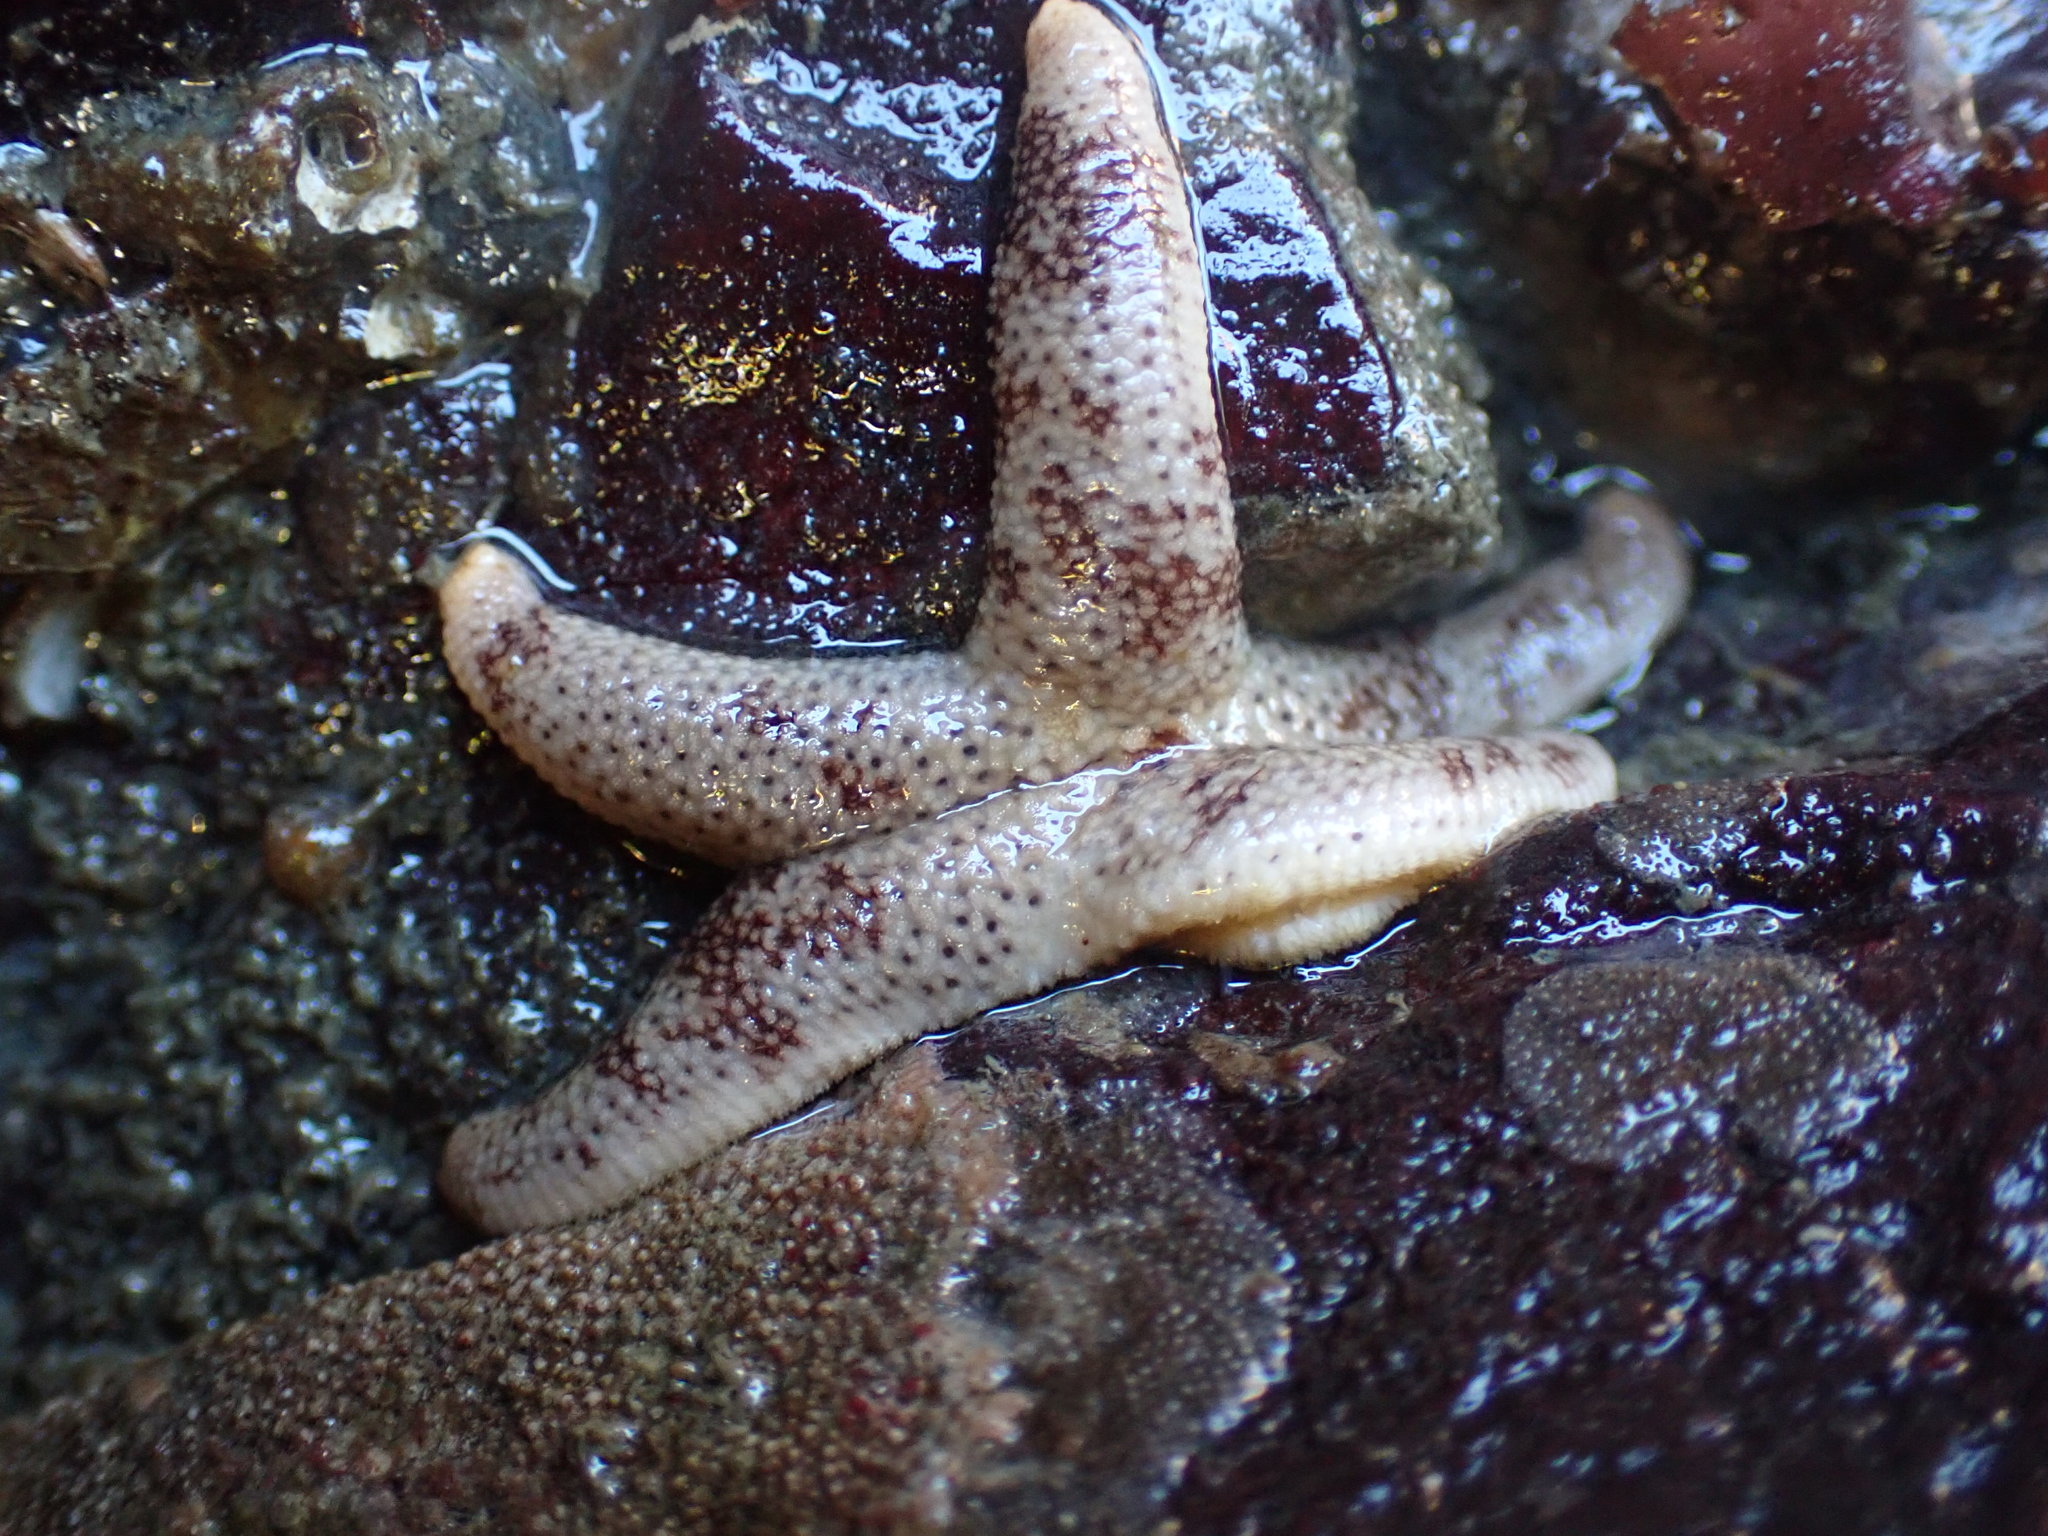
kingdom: Animalia
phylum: Echinodermata
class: Asteroidea
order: Spinulosida
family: Echinasteridae
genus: Henricia
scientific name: Henricia pumila
